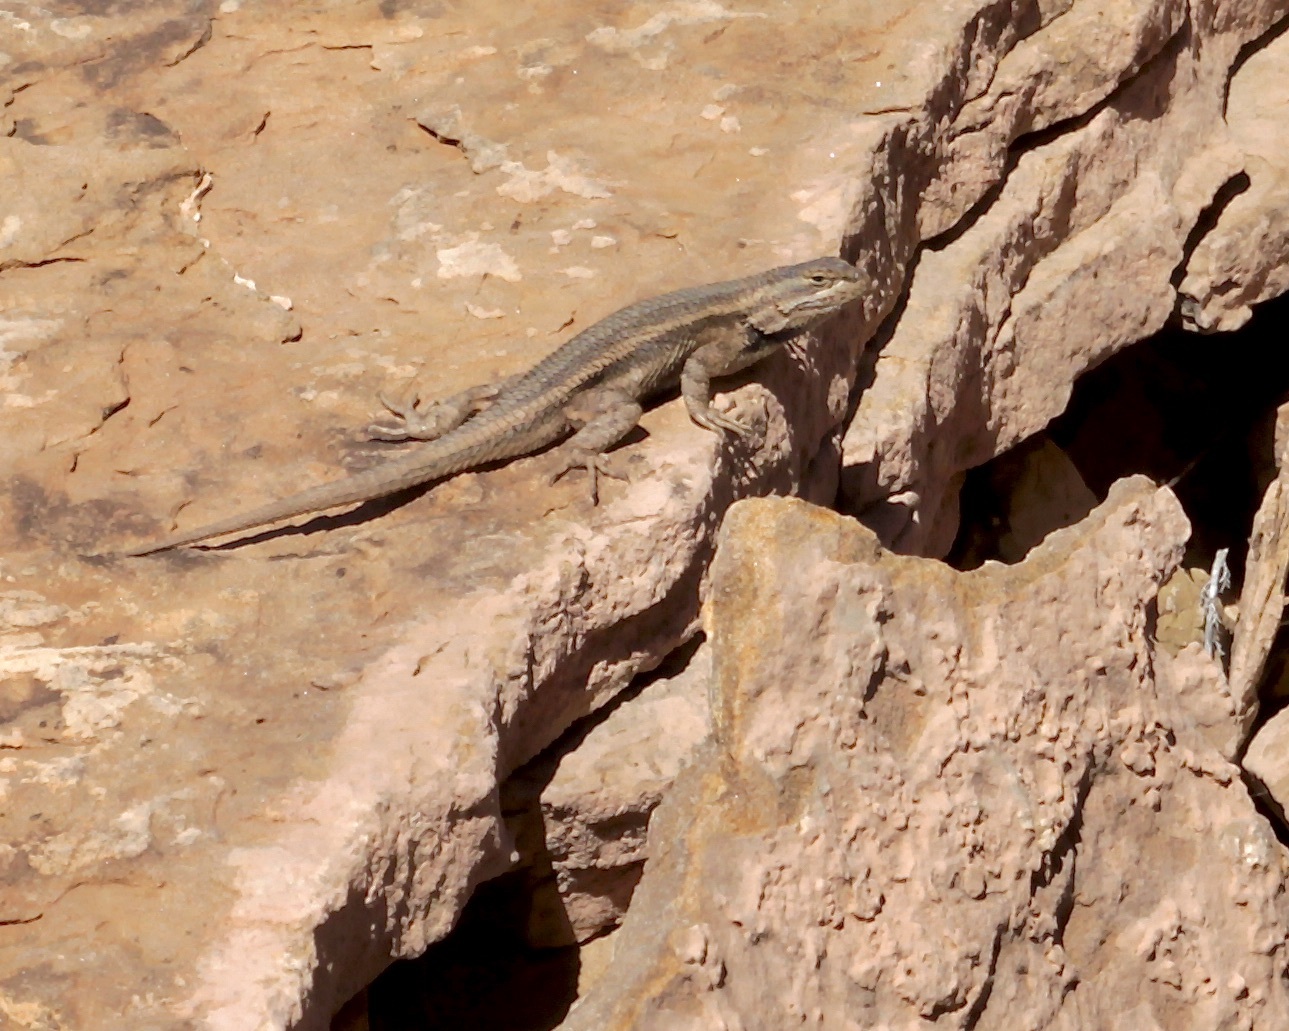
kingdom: Animalia
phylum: Chordata
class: Squamata
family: Phrynosomatidae
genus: Sceloporus
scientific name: Sceloporus cowlesi
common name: White sands prairie lizard
